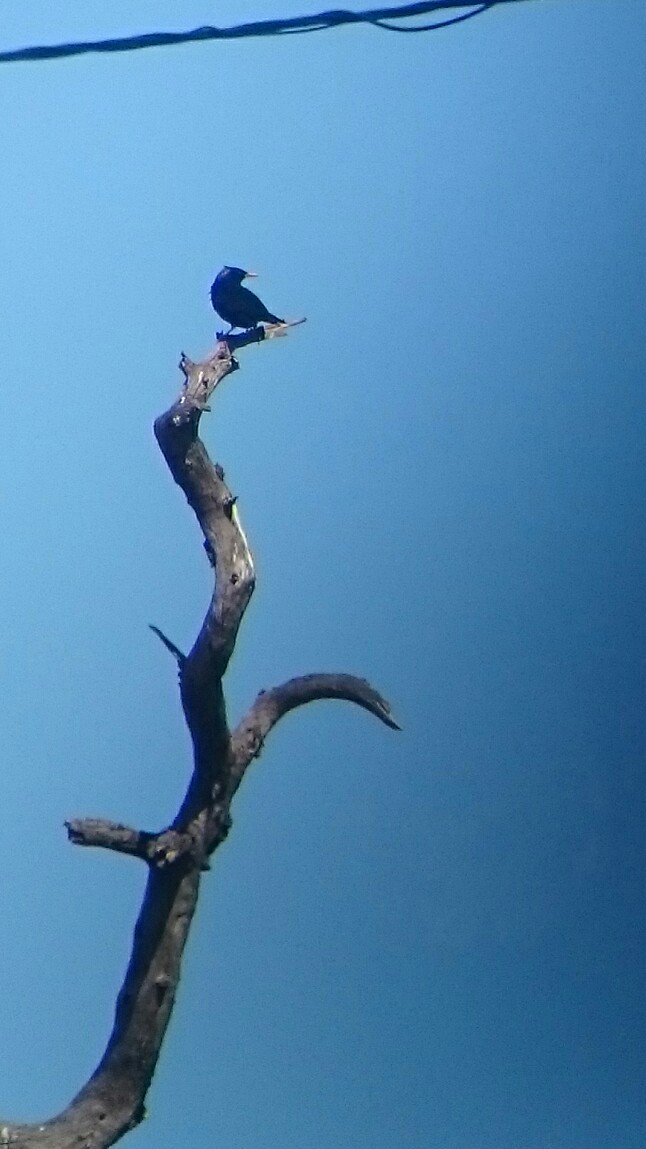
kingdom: Animalia
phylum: Chordata
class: Aves
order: Passeriformes
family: Sturnidae
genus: Sturnus
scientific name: Sturnus unicolor
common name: Spotless starling
